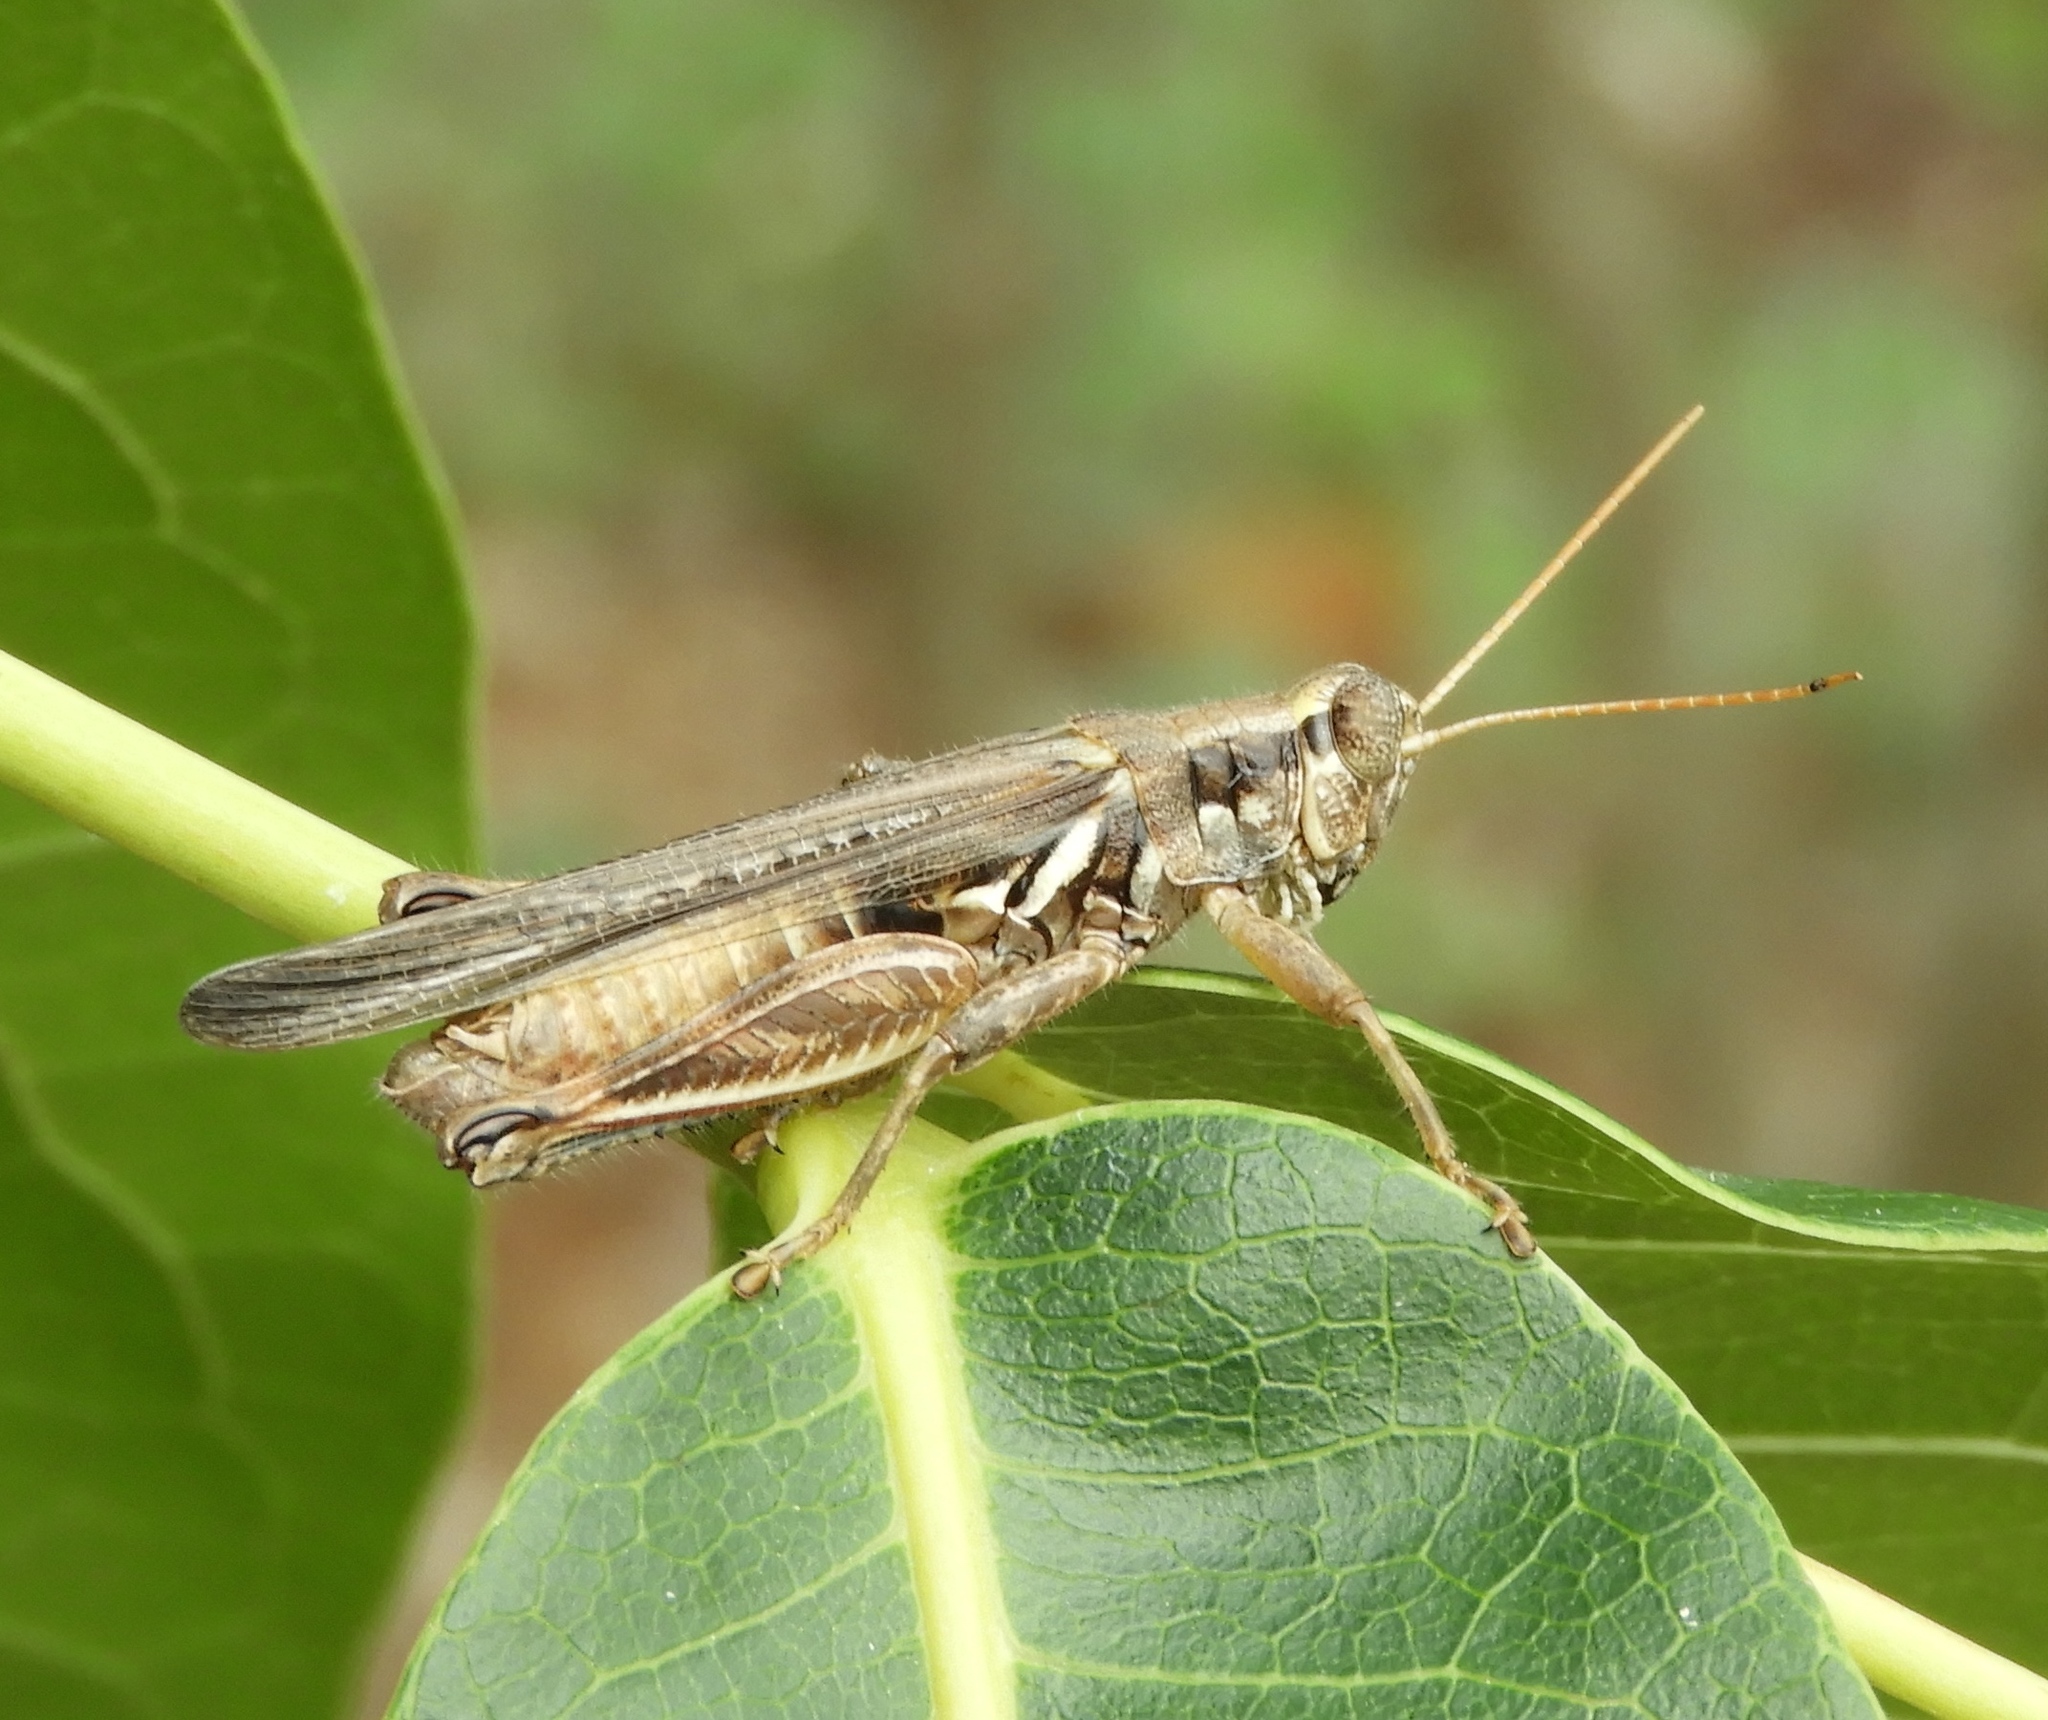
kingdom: Animalia
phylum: Arthropoda
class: Insecta
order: Orthoptera
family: Acrididae
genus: Melanoplus
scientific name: Melanoplus
